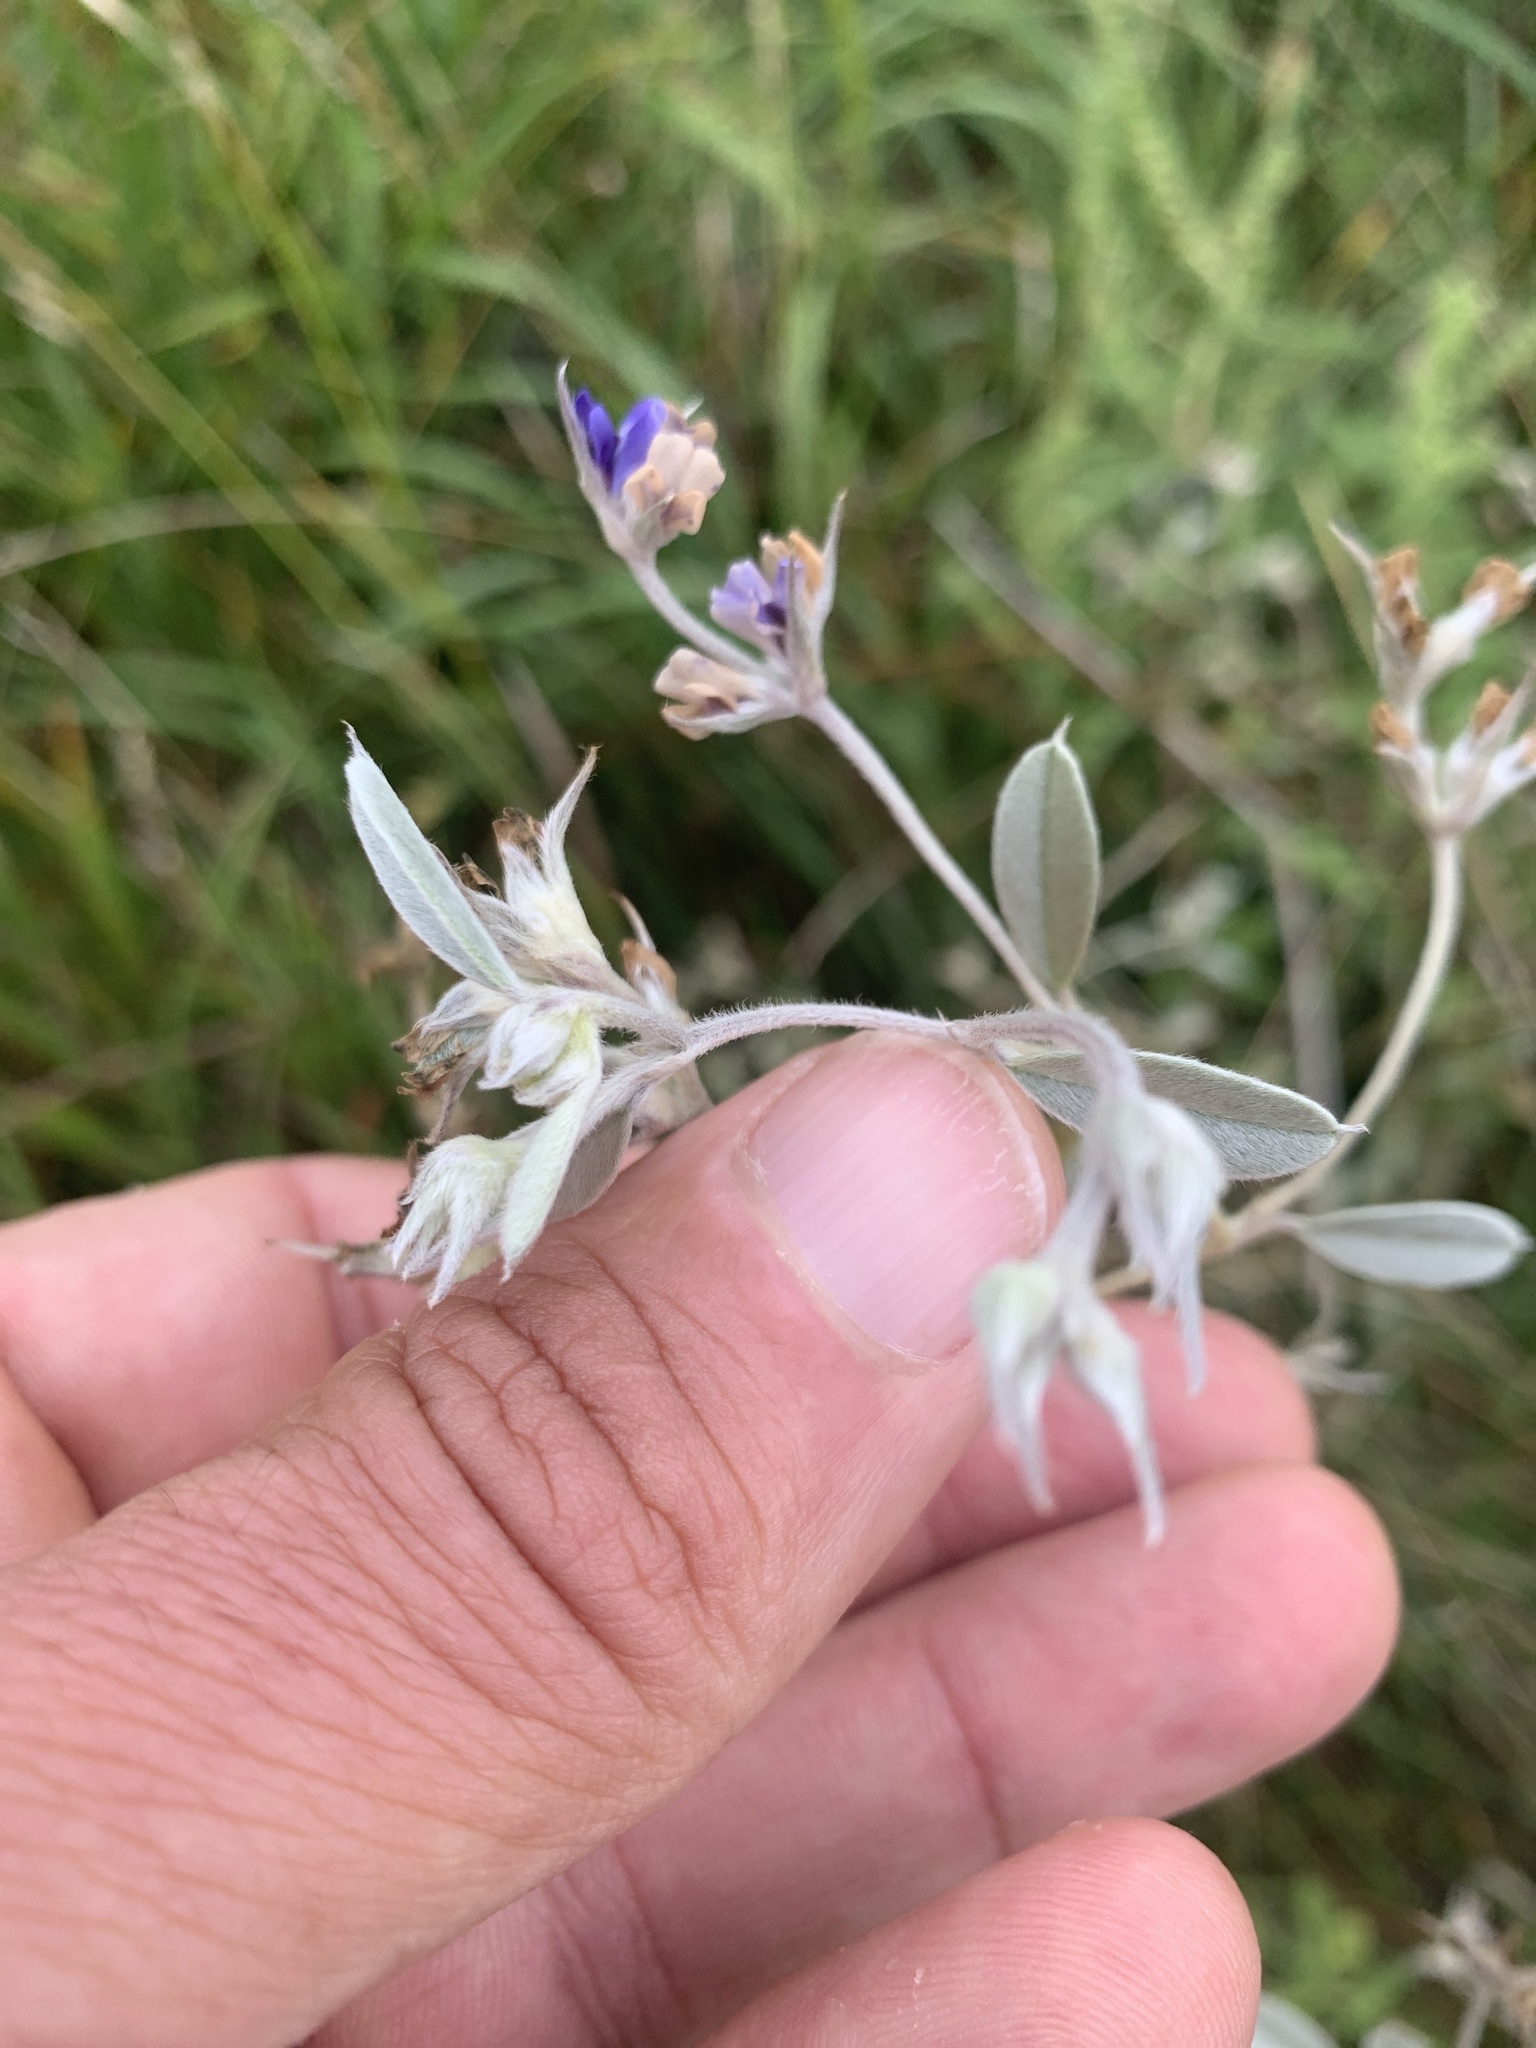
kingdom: Plantae
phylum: Tracheophyta
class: Magnoliopsida
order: Fabales
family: Fabaceae
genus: Pediomelum
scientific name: Pediomelum argophyllum
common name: Silver-leaved indian breadroot
